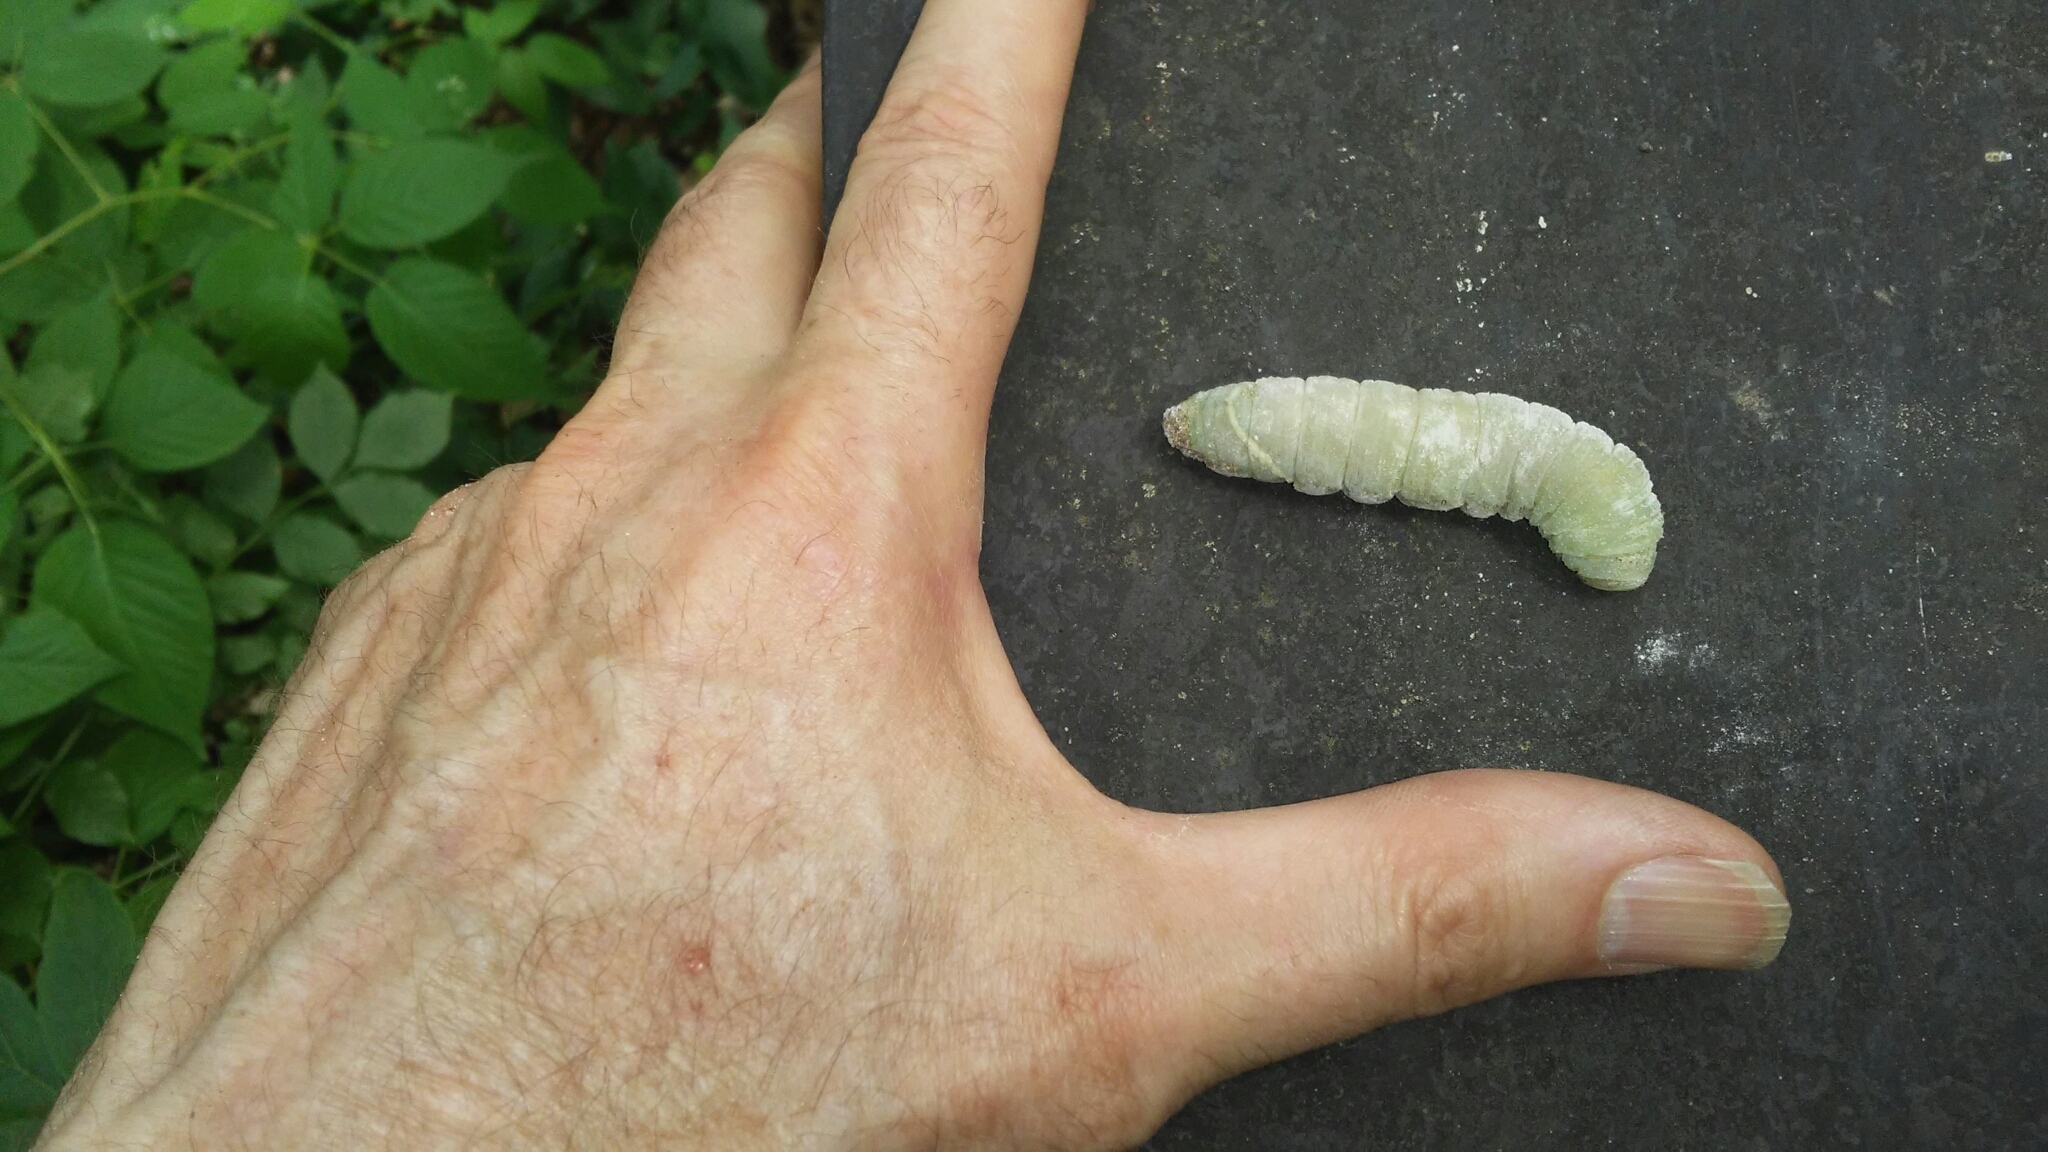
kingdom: Animalia
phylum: Arthropoda
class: Insecta
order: Lepidoptera
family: Sphingidae
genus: Pachysphinx
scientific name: Pachysphinx modesta
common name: Big poplar sphinx
